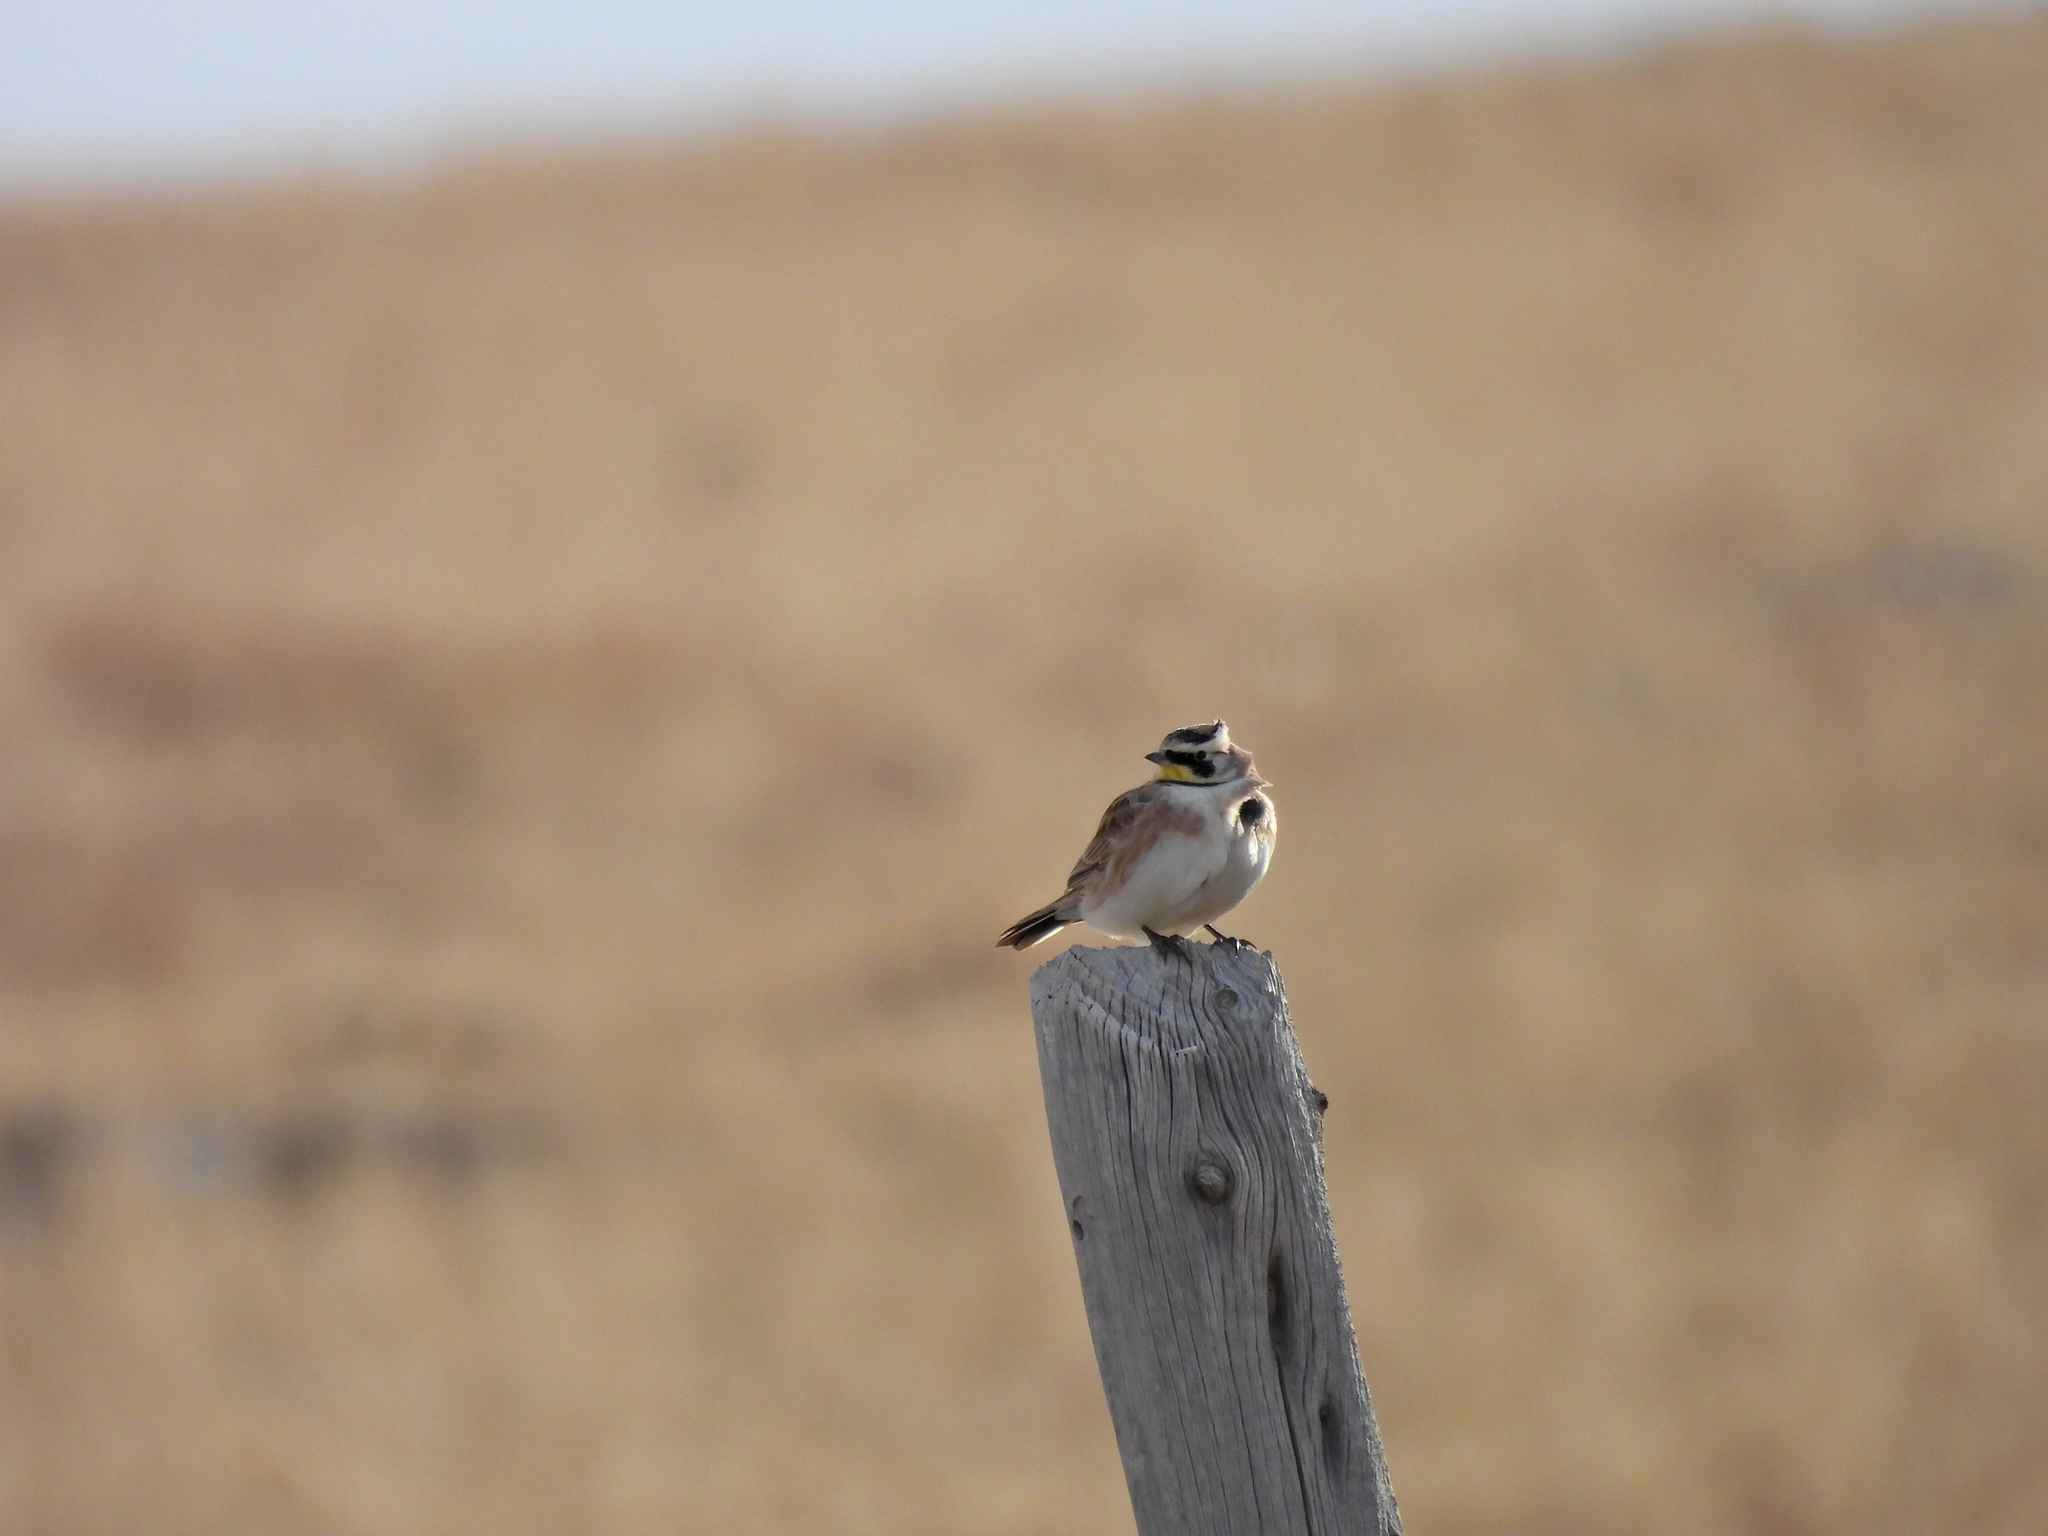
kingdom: Animalia
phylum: Chordata
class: Aves
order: Passeriformes
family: Alaudidae
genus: Eremophila
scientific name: Eremophila alpestris
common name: Horned lark
